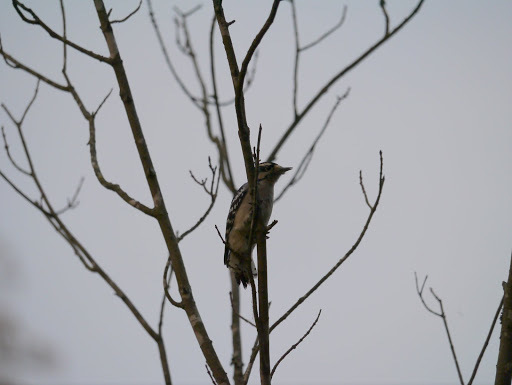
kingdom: Animalia
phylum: Chordata
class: Aves
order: Piciformes
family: Picidae
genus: Dryobates
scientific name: Dryobates pubescens
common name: Downy woodpecker
